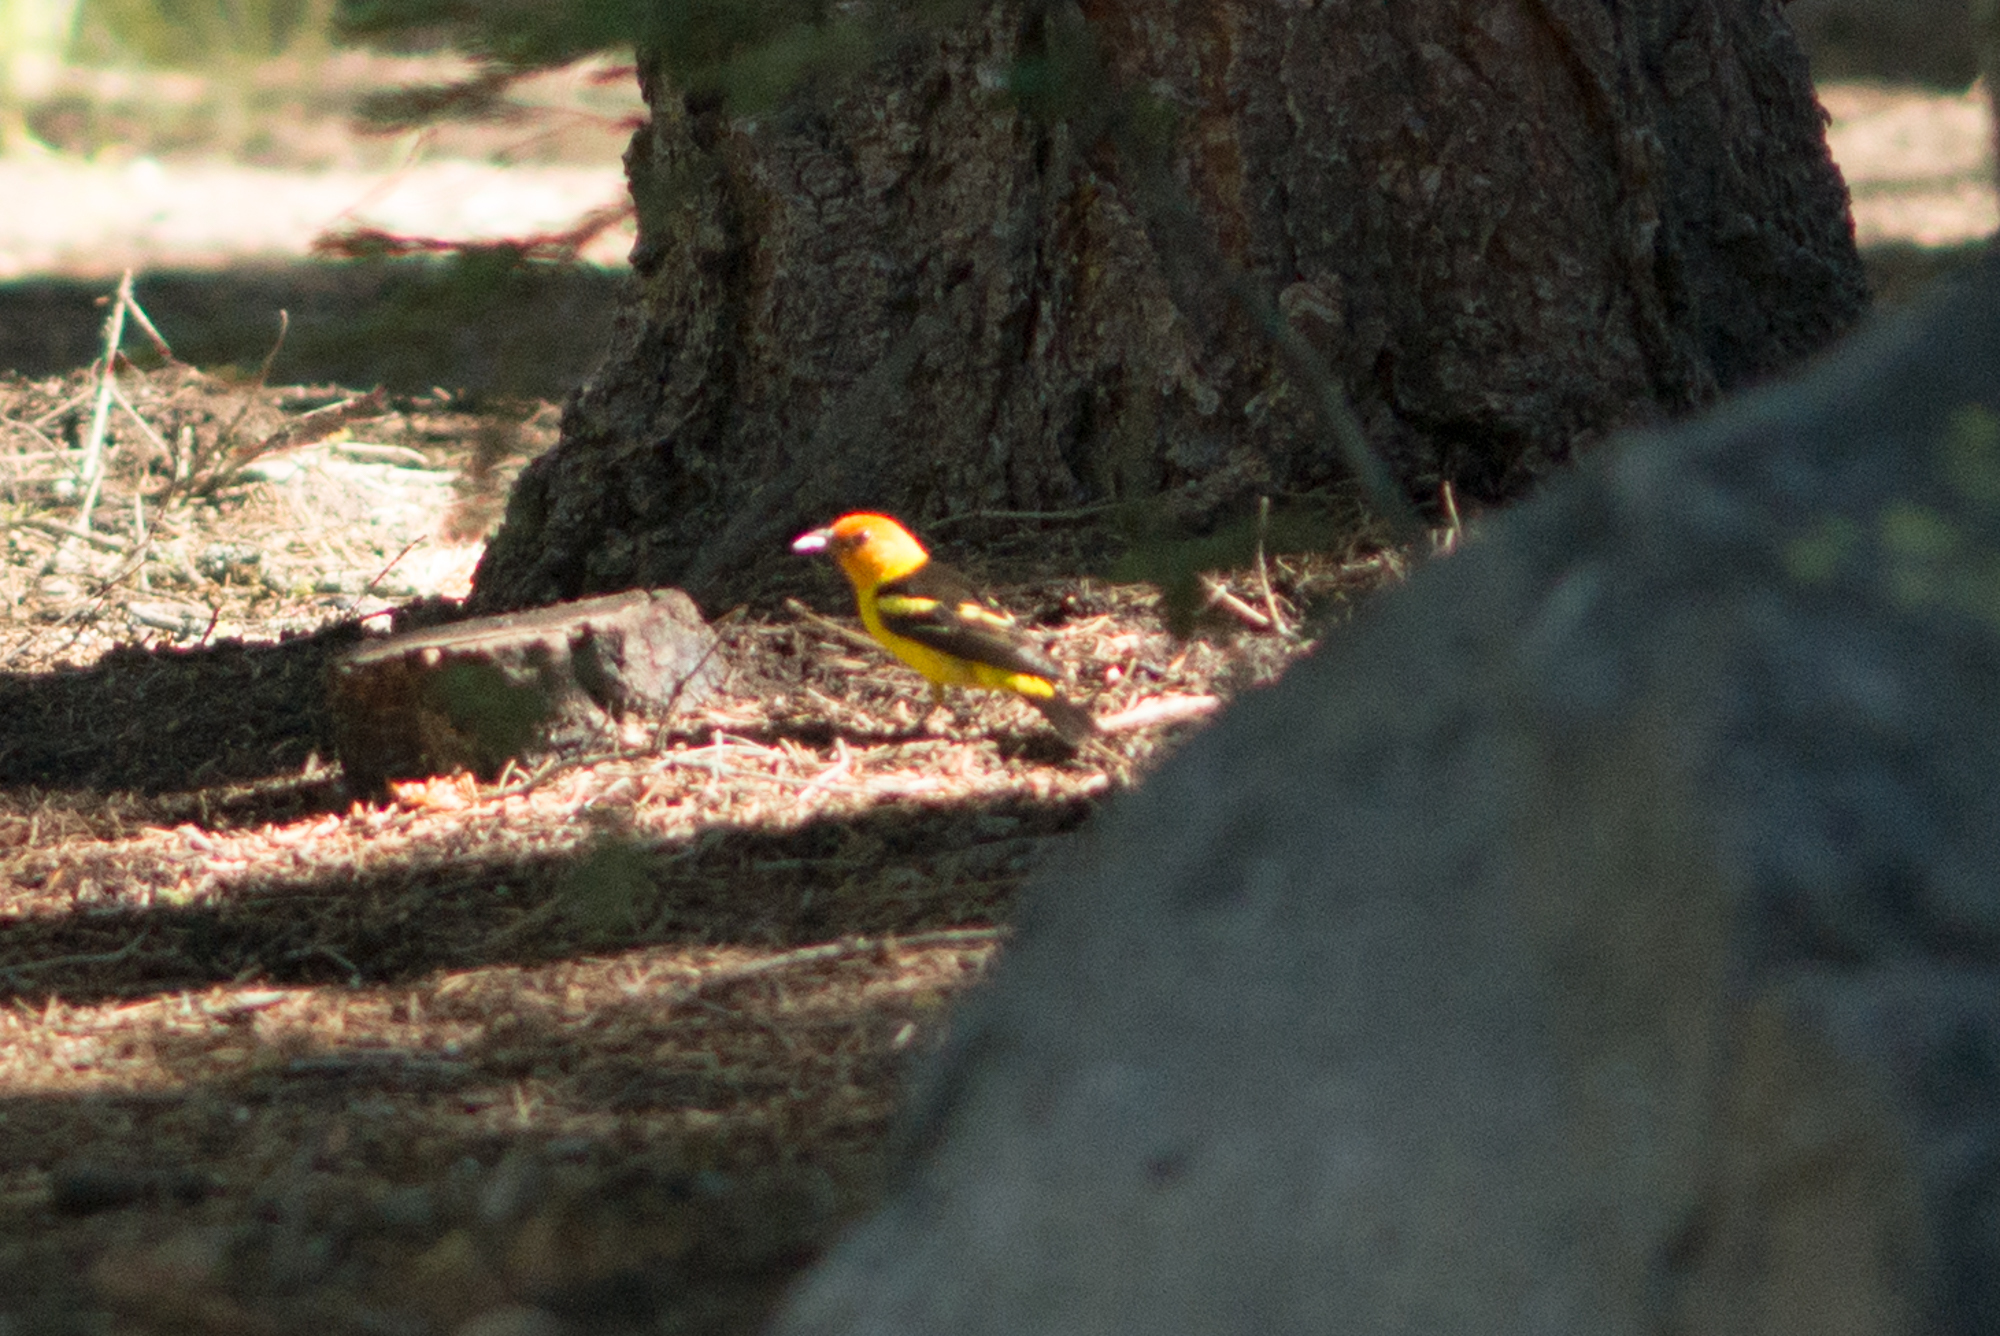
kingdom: Animalia
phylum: Chordata
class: Aves
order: Passeriformes
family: Cardinalidae
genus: Piranga
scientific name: Piranga ludoviciana
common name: Western tanager
